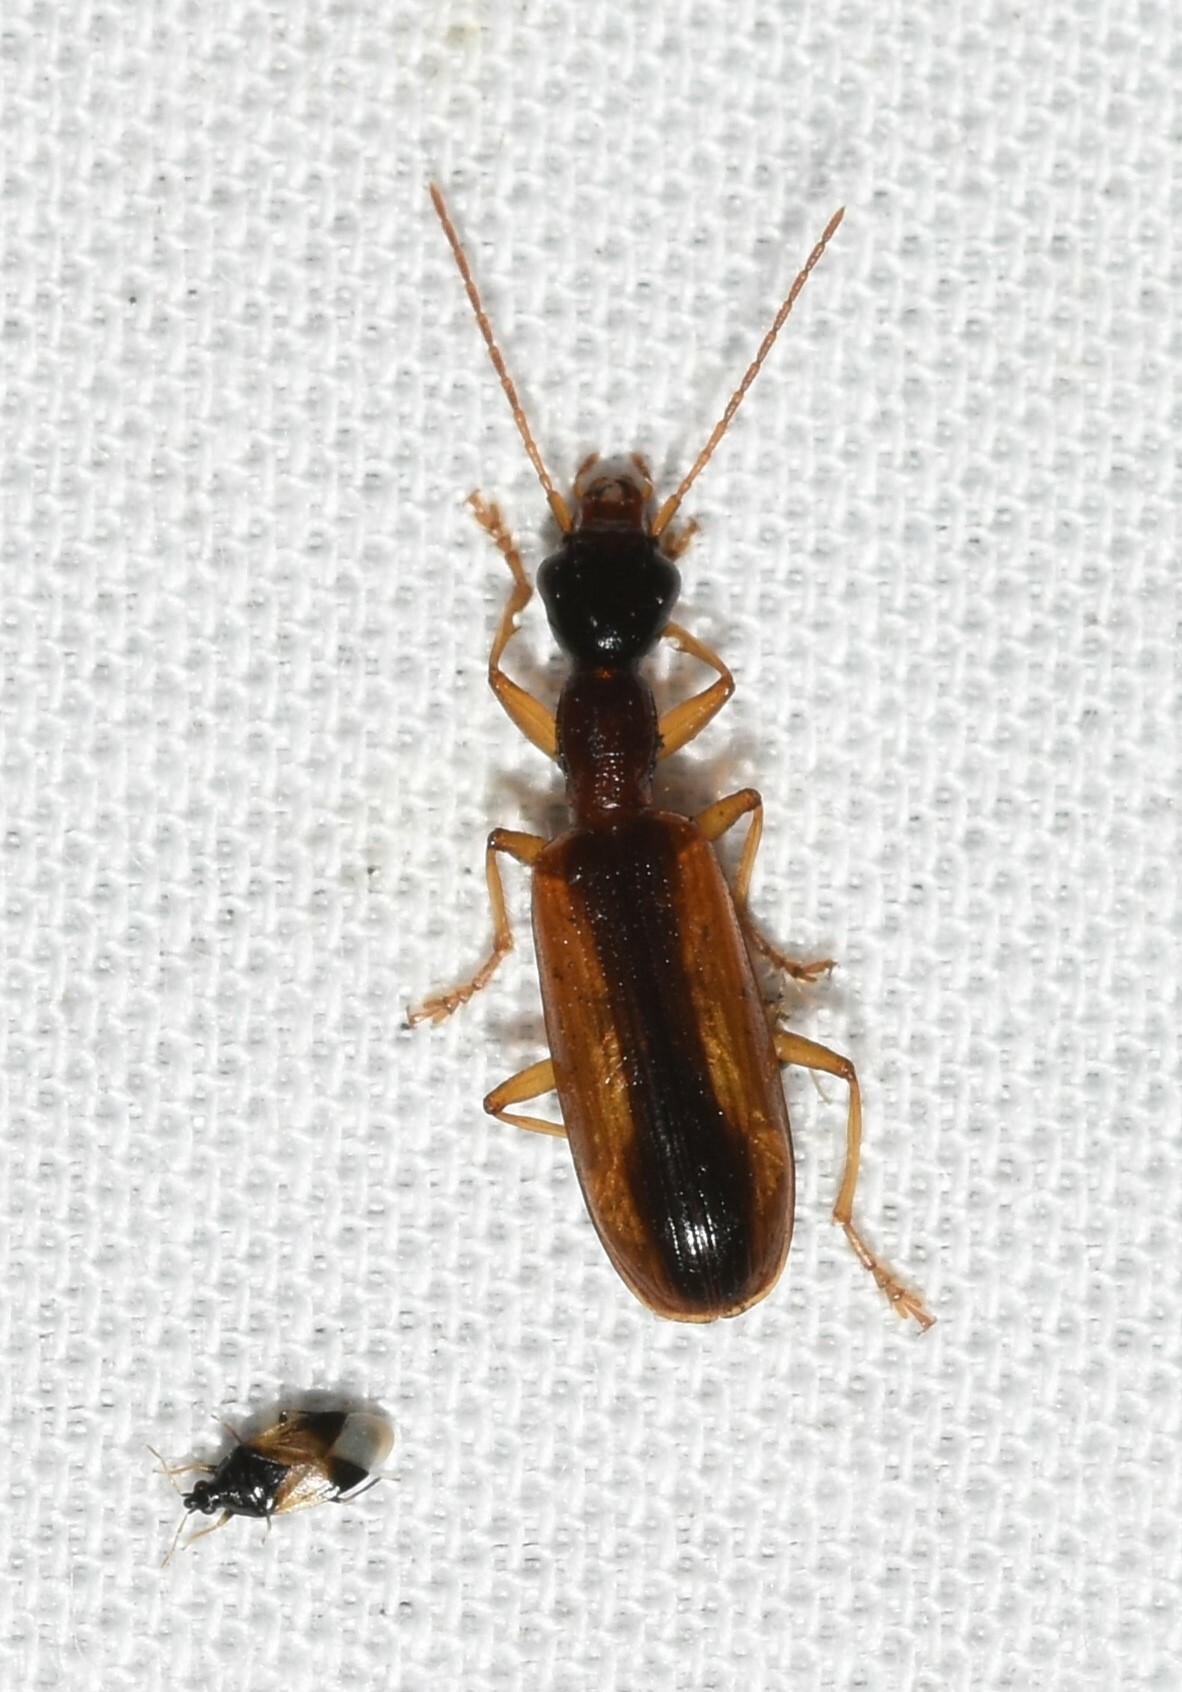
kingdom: Animalia
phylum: Arthropoda
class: Insecta
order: Coleoptera
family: Carabidae
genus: Leptotrachelus
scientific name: Leptotrachelus dorsalis
